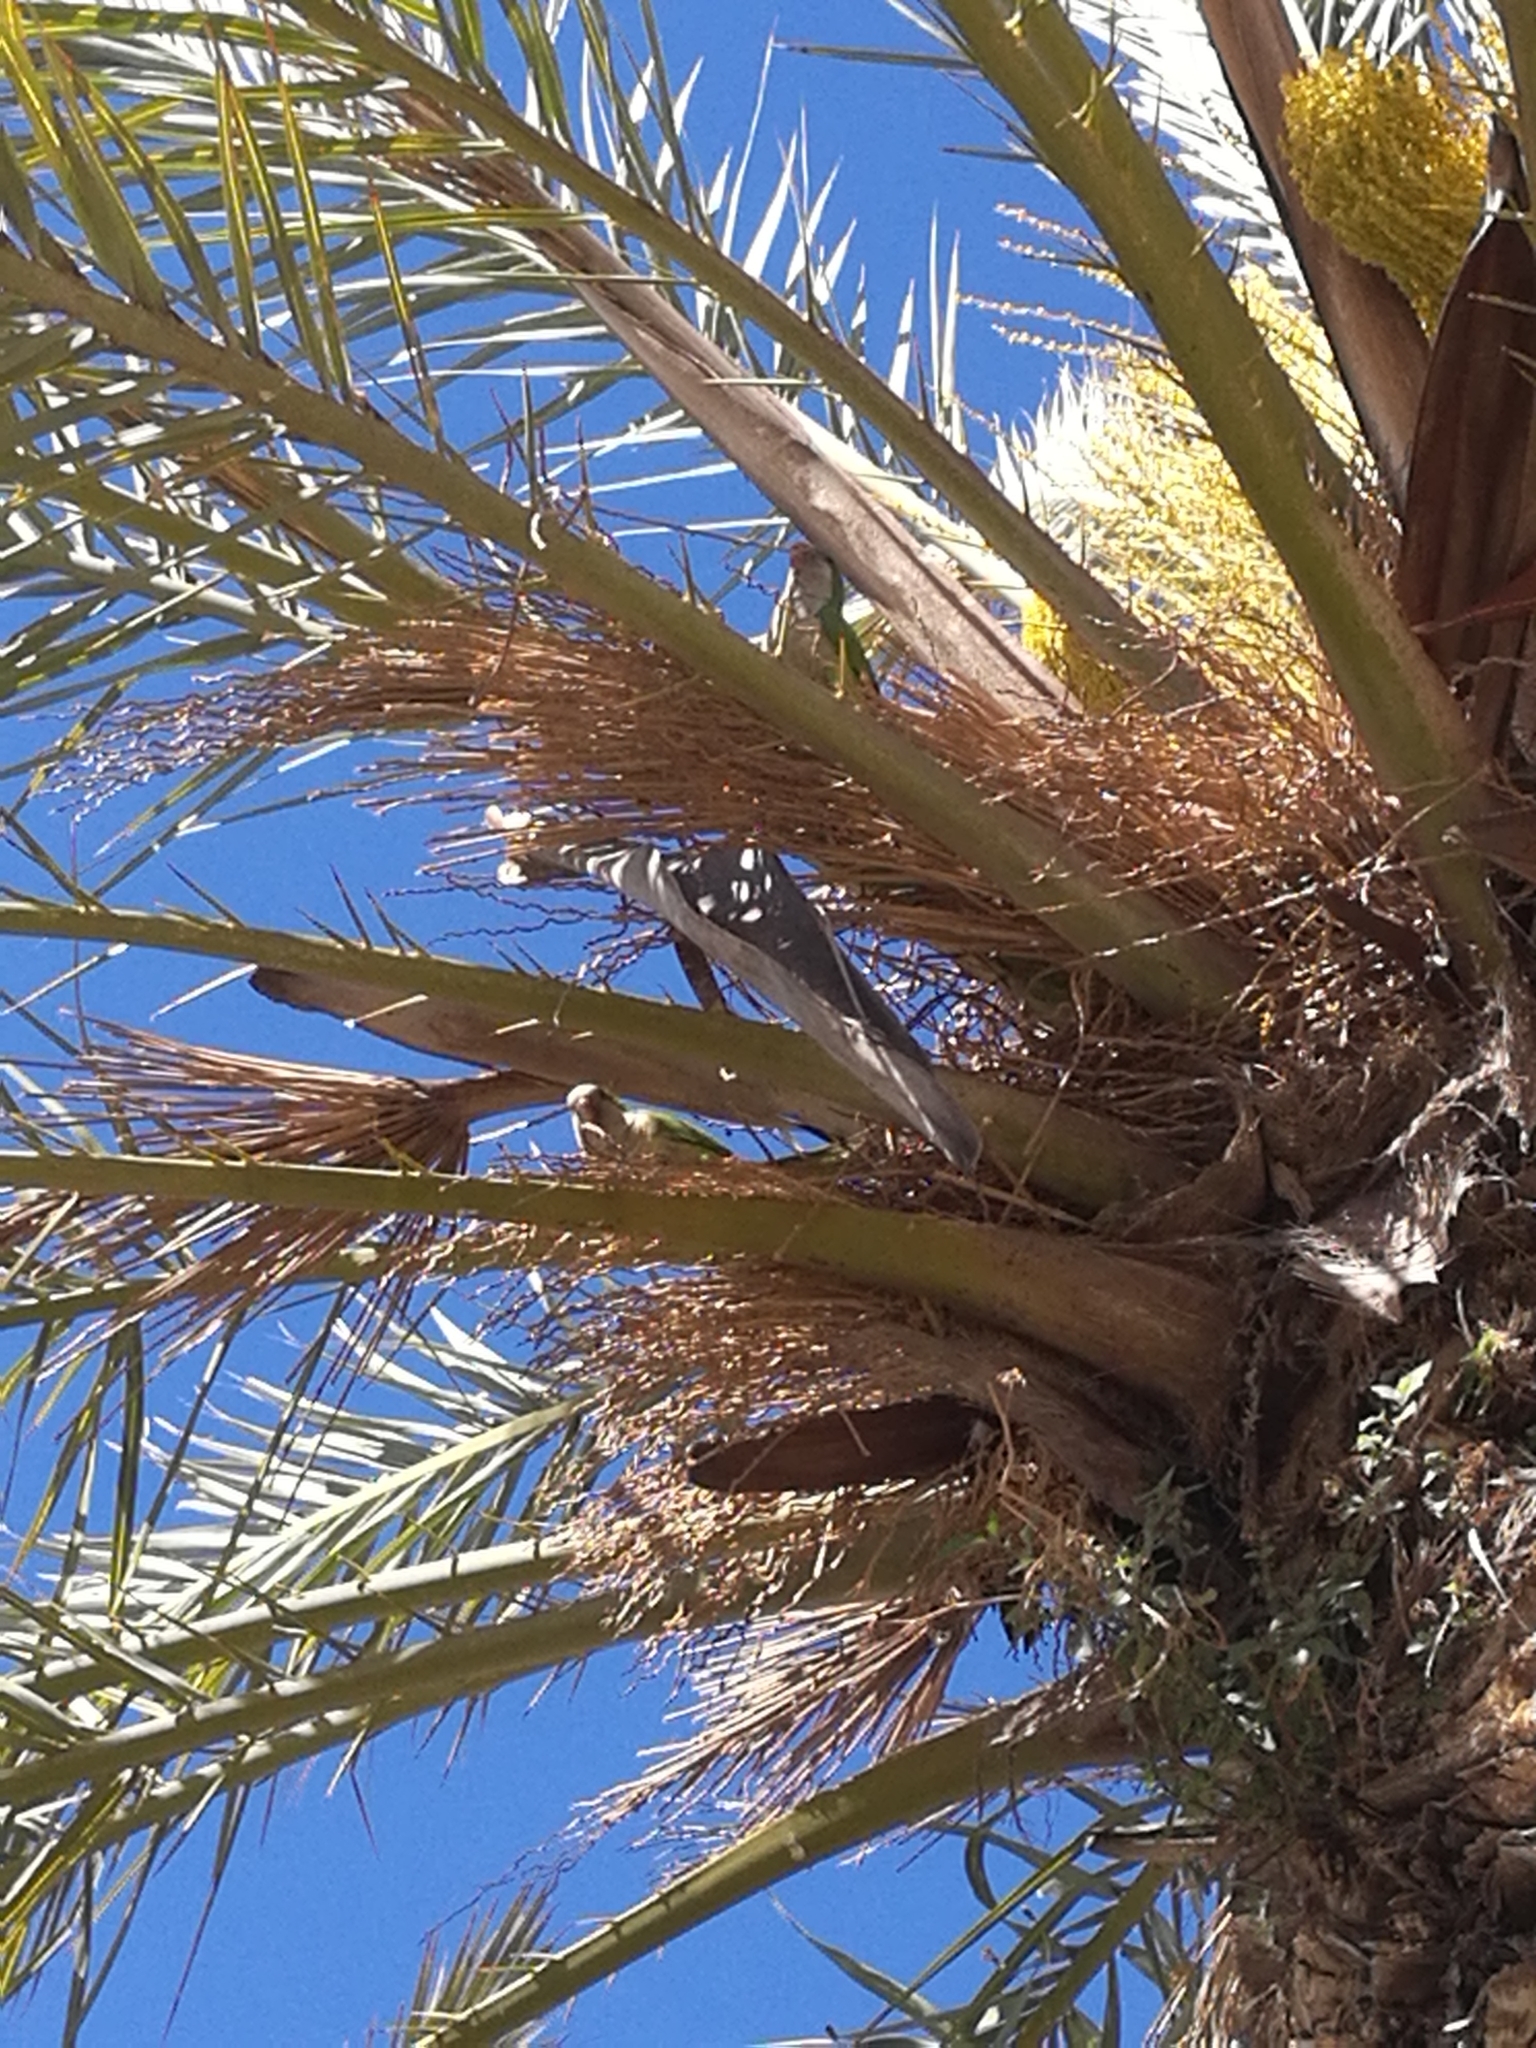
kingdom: Animalia
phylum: Chordata
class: Aves
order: Psittaciformes
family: Psittacidae
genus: Myiopsitta
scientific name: Myiopsitta monachus
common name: Monk parakeet
